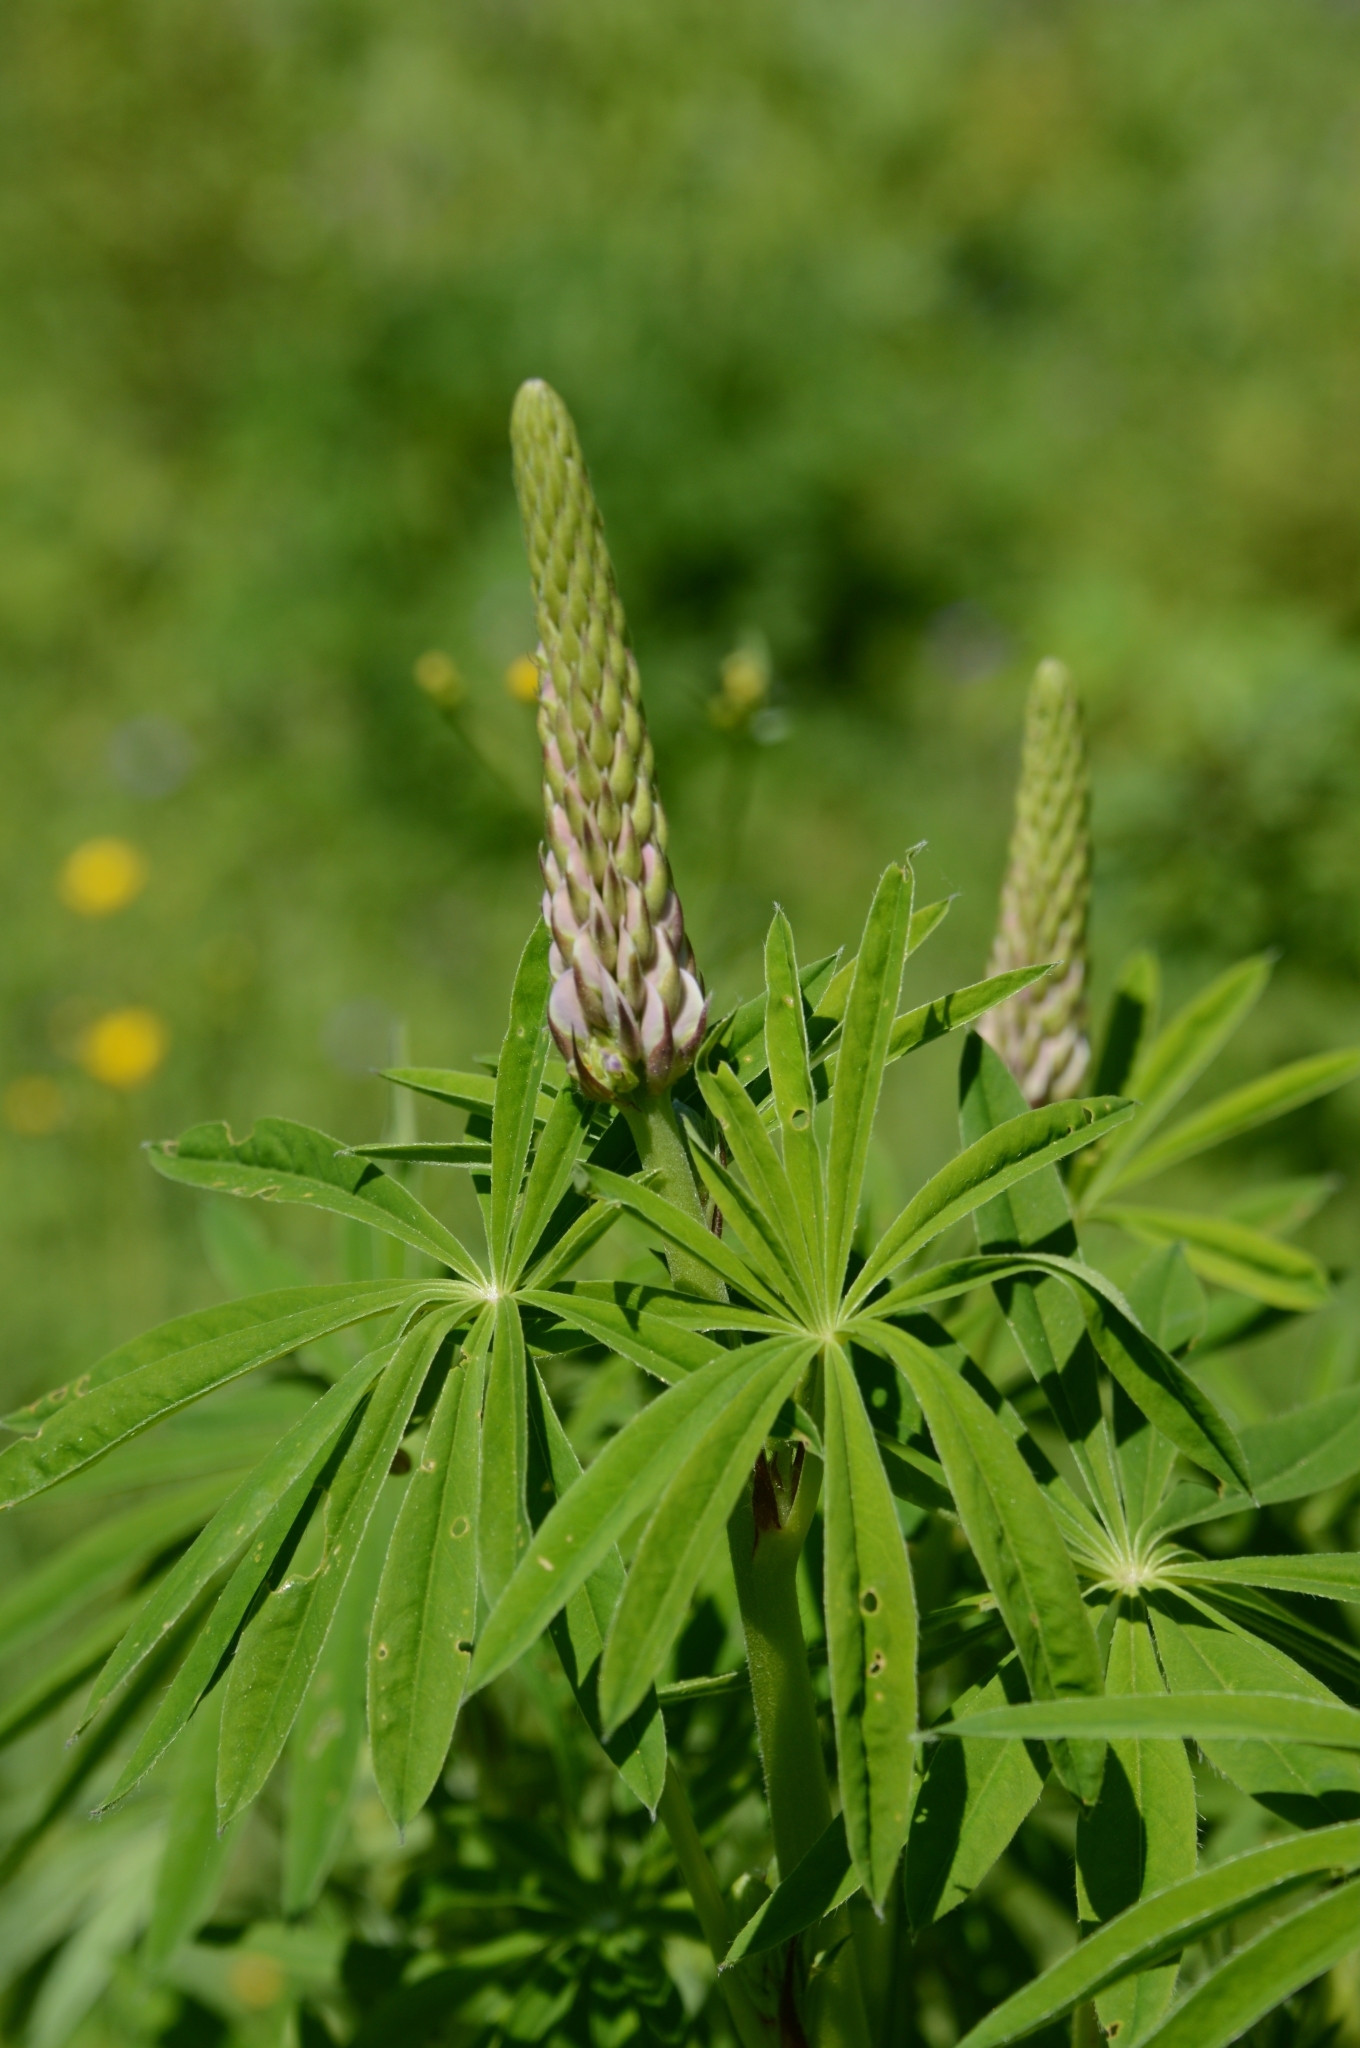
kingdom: Plantae
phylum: Tracheophyta
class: Magnoliopsida
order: Fabales
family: Fabaceae
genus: Lupinus
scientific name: Lupinus polyphyllus
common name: Garden lupin
